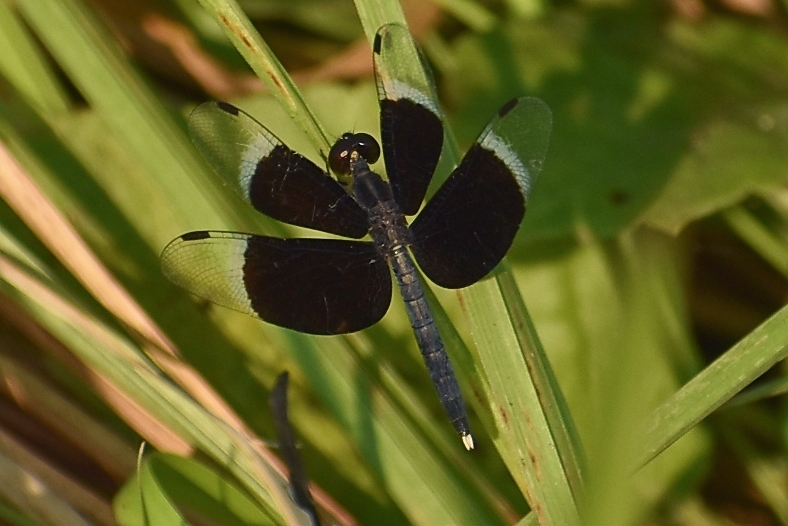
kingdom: Animalia
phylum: Arthropoda
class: Insecta
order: Odonata
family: Libellulidae
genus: Neurothemis
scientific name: Neurothemis tullia
